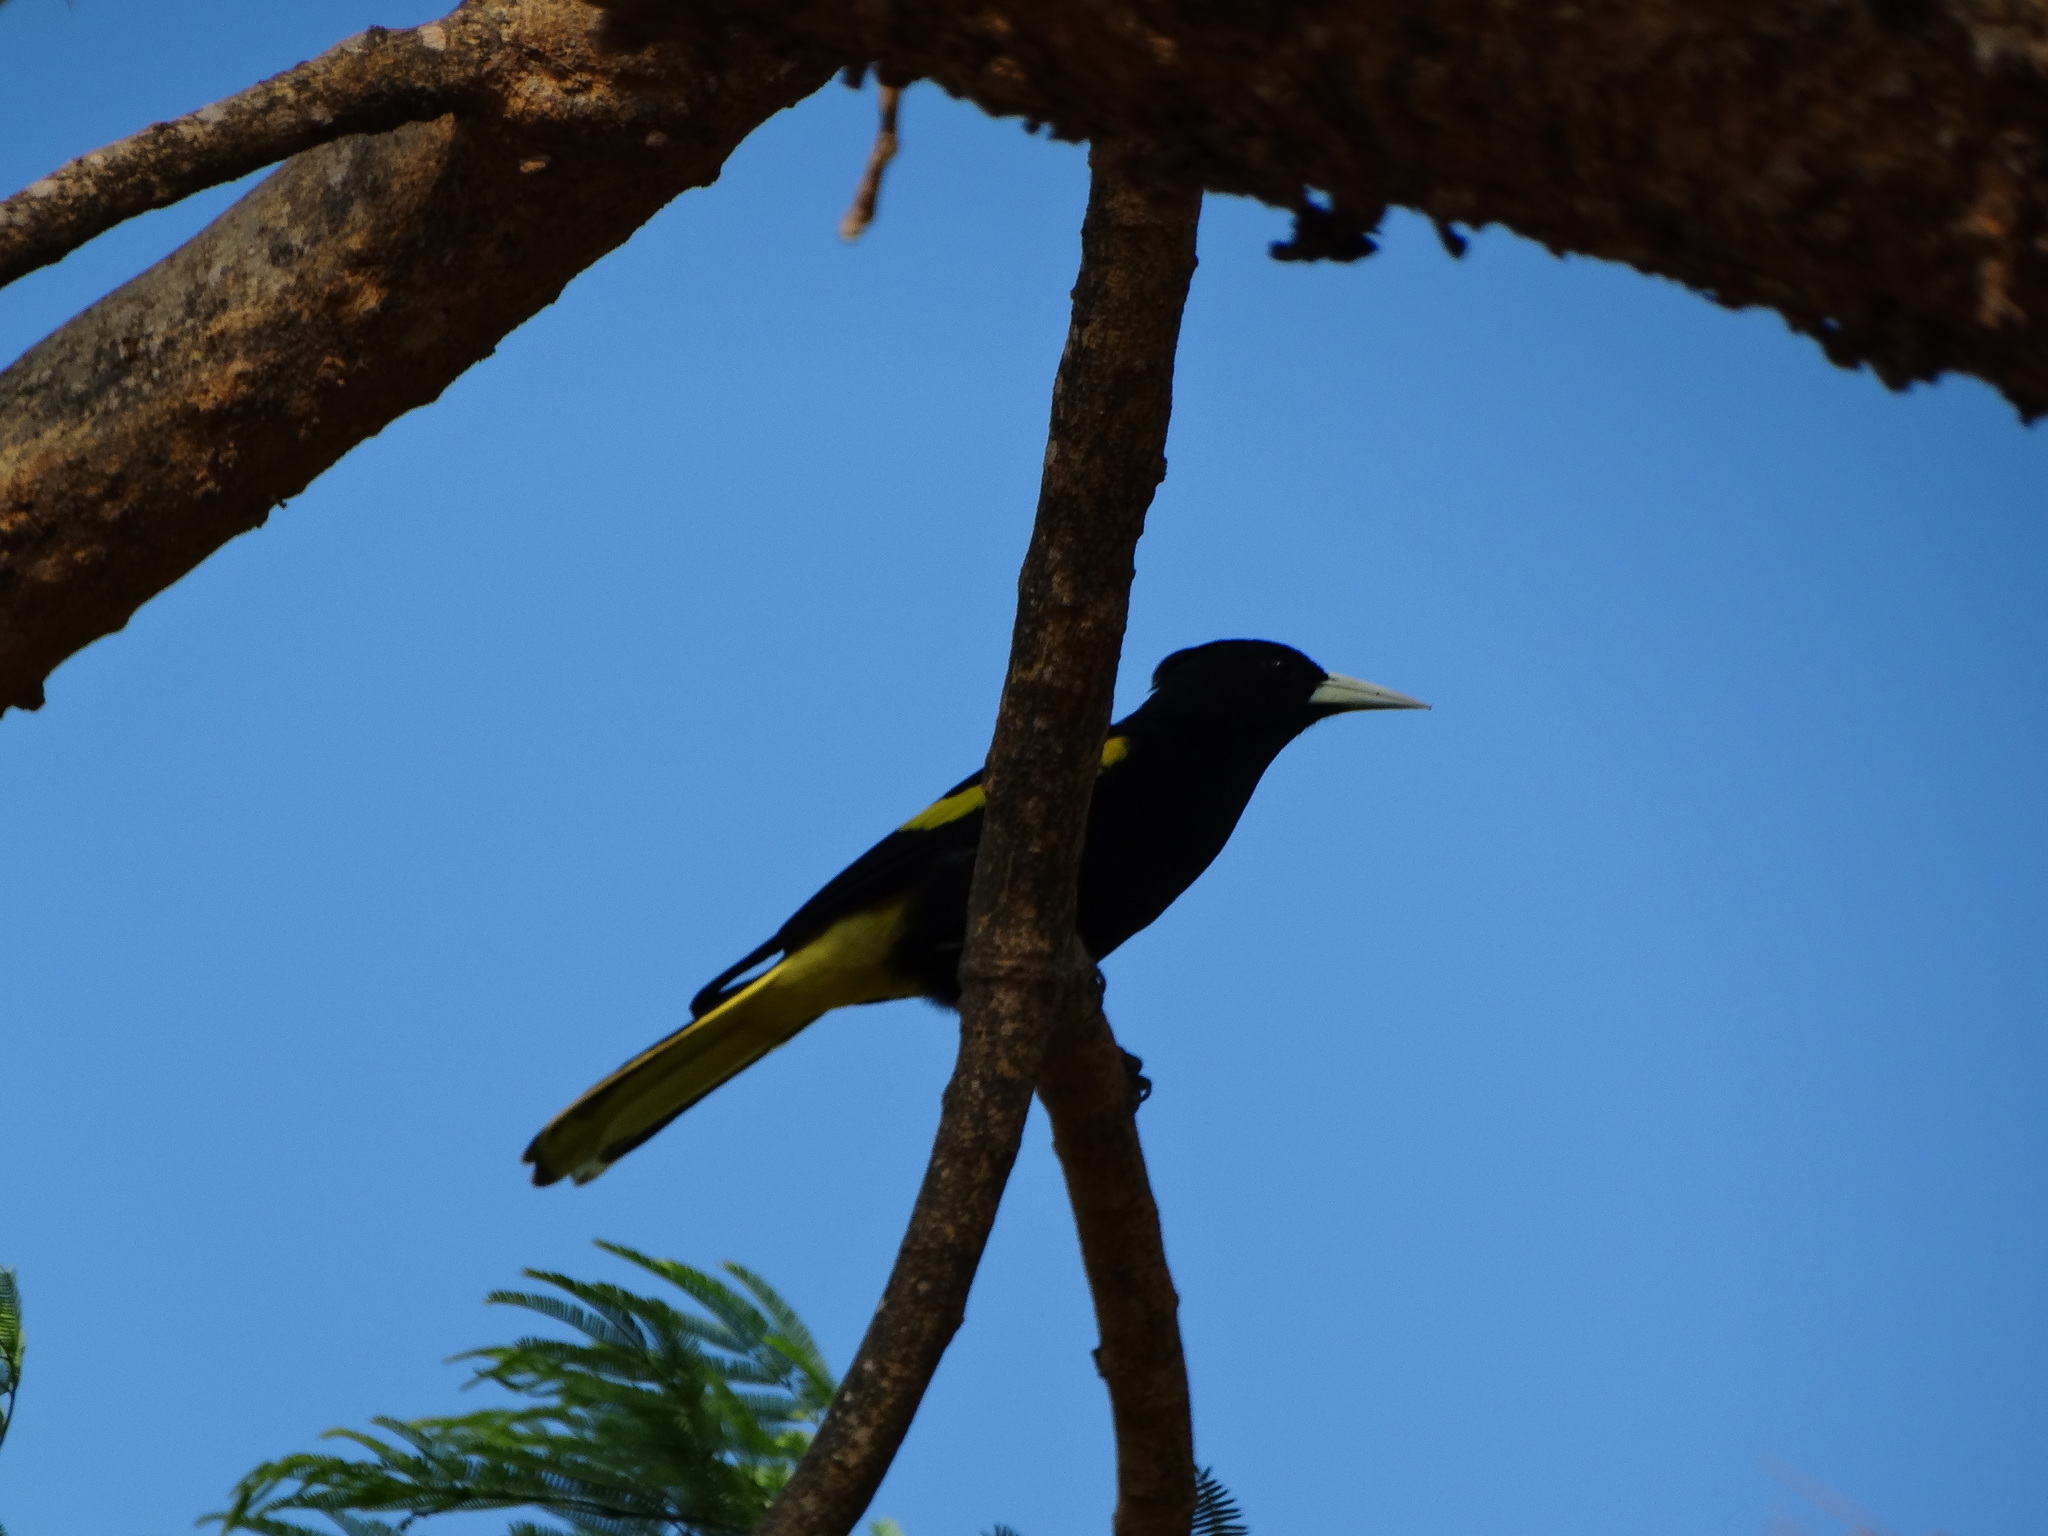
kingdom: Animalia
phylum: Chordata
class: Aves
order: Passeriformes
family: Icteridae
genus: Cacicus
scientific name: Cacicus melanicterus
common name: Yellow-winged cacique
